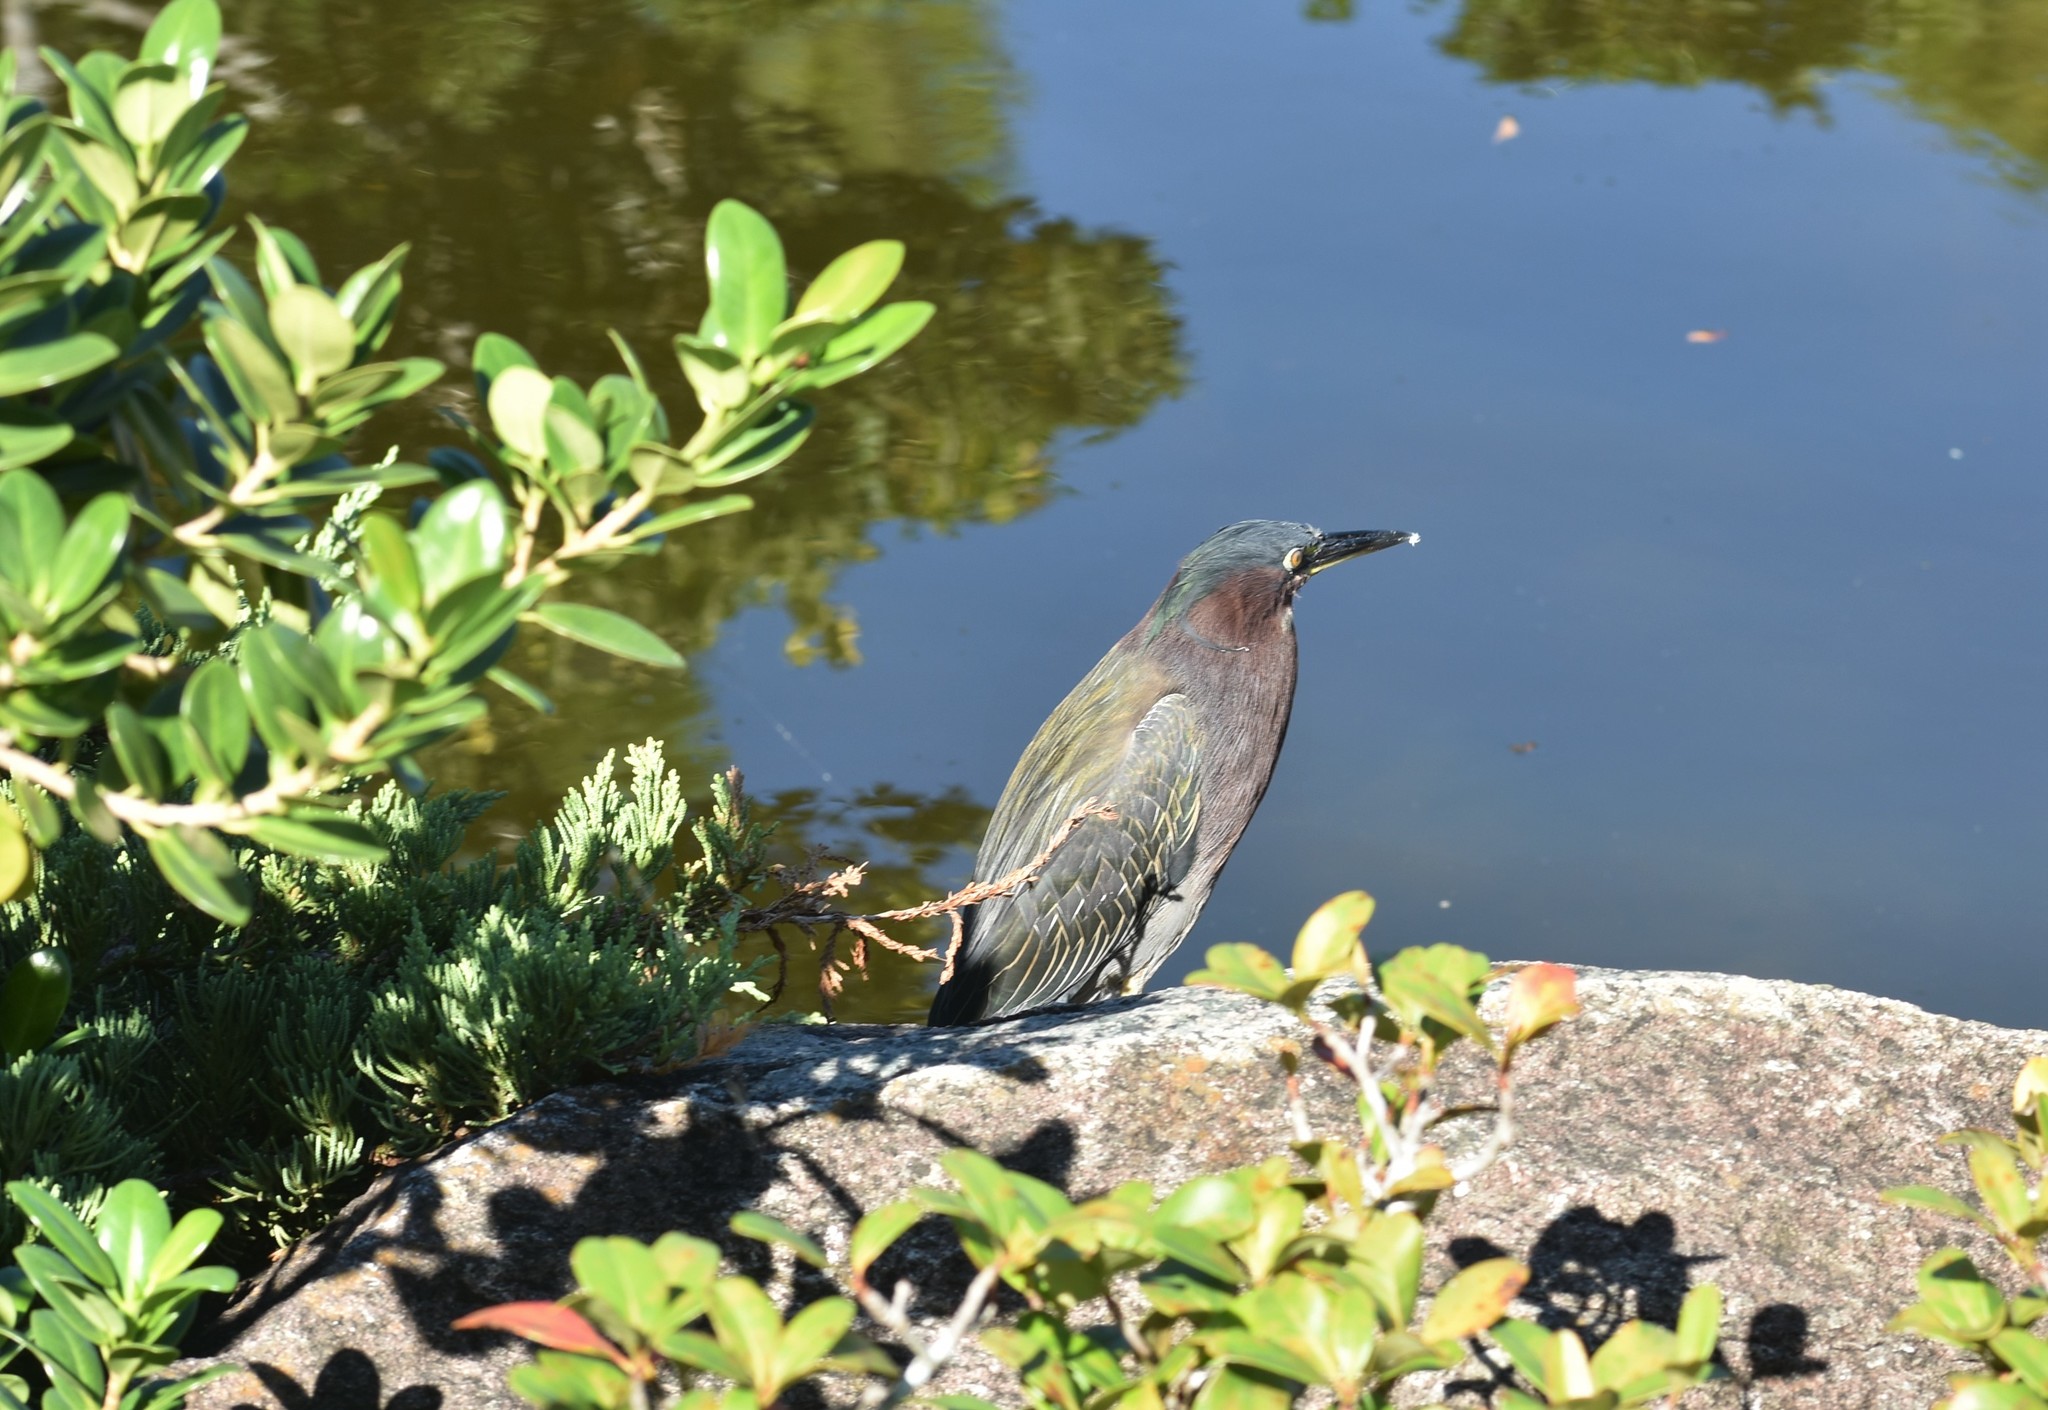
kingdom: Animalia
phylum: Chordata
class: Aves
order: Pelecaniformes
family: Ardeidae
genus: Butorides
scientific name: Butorides virescens
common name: Green heron
